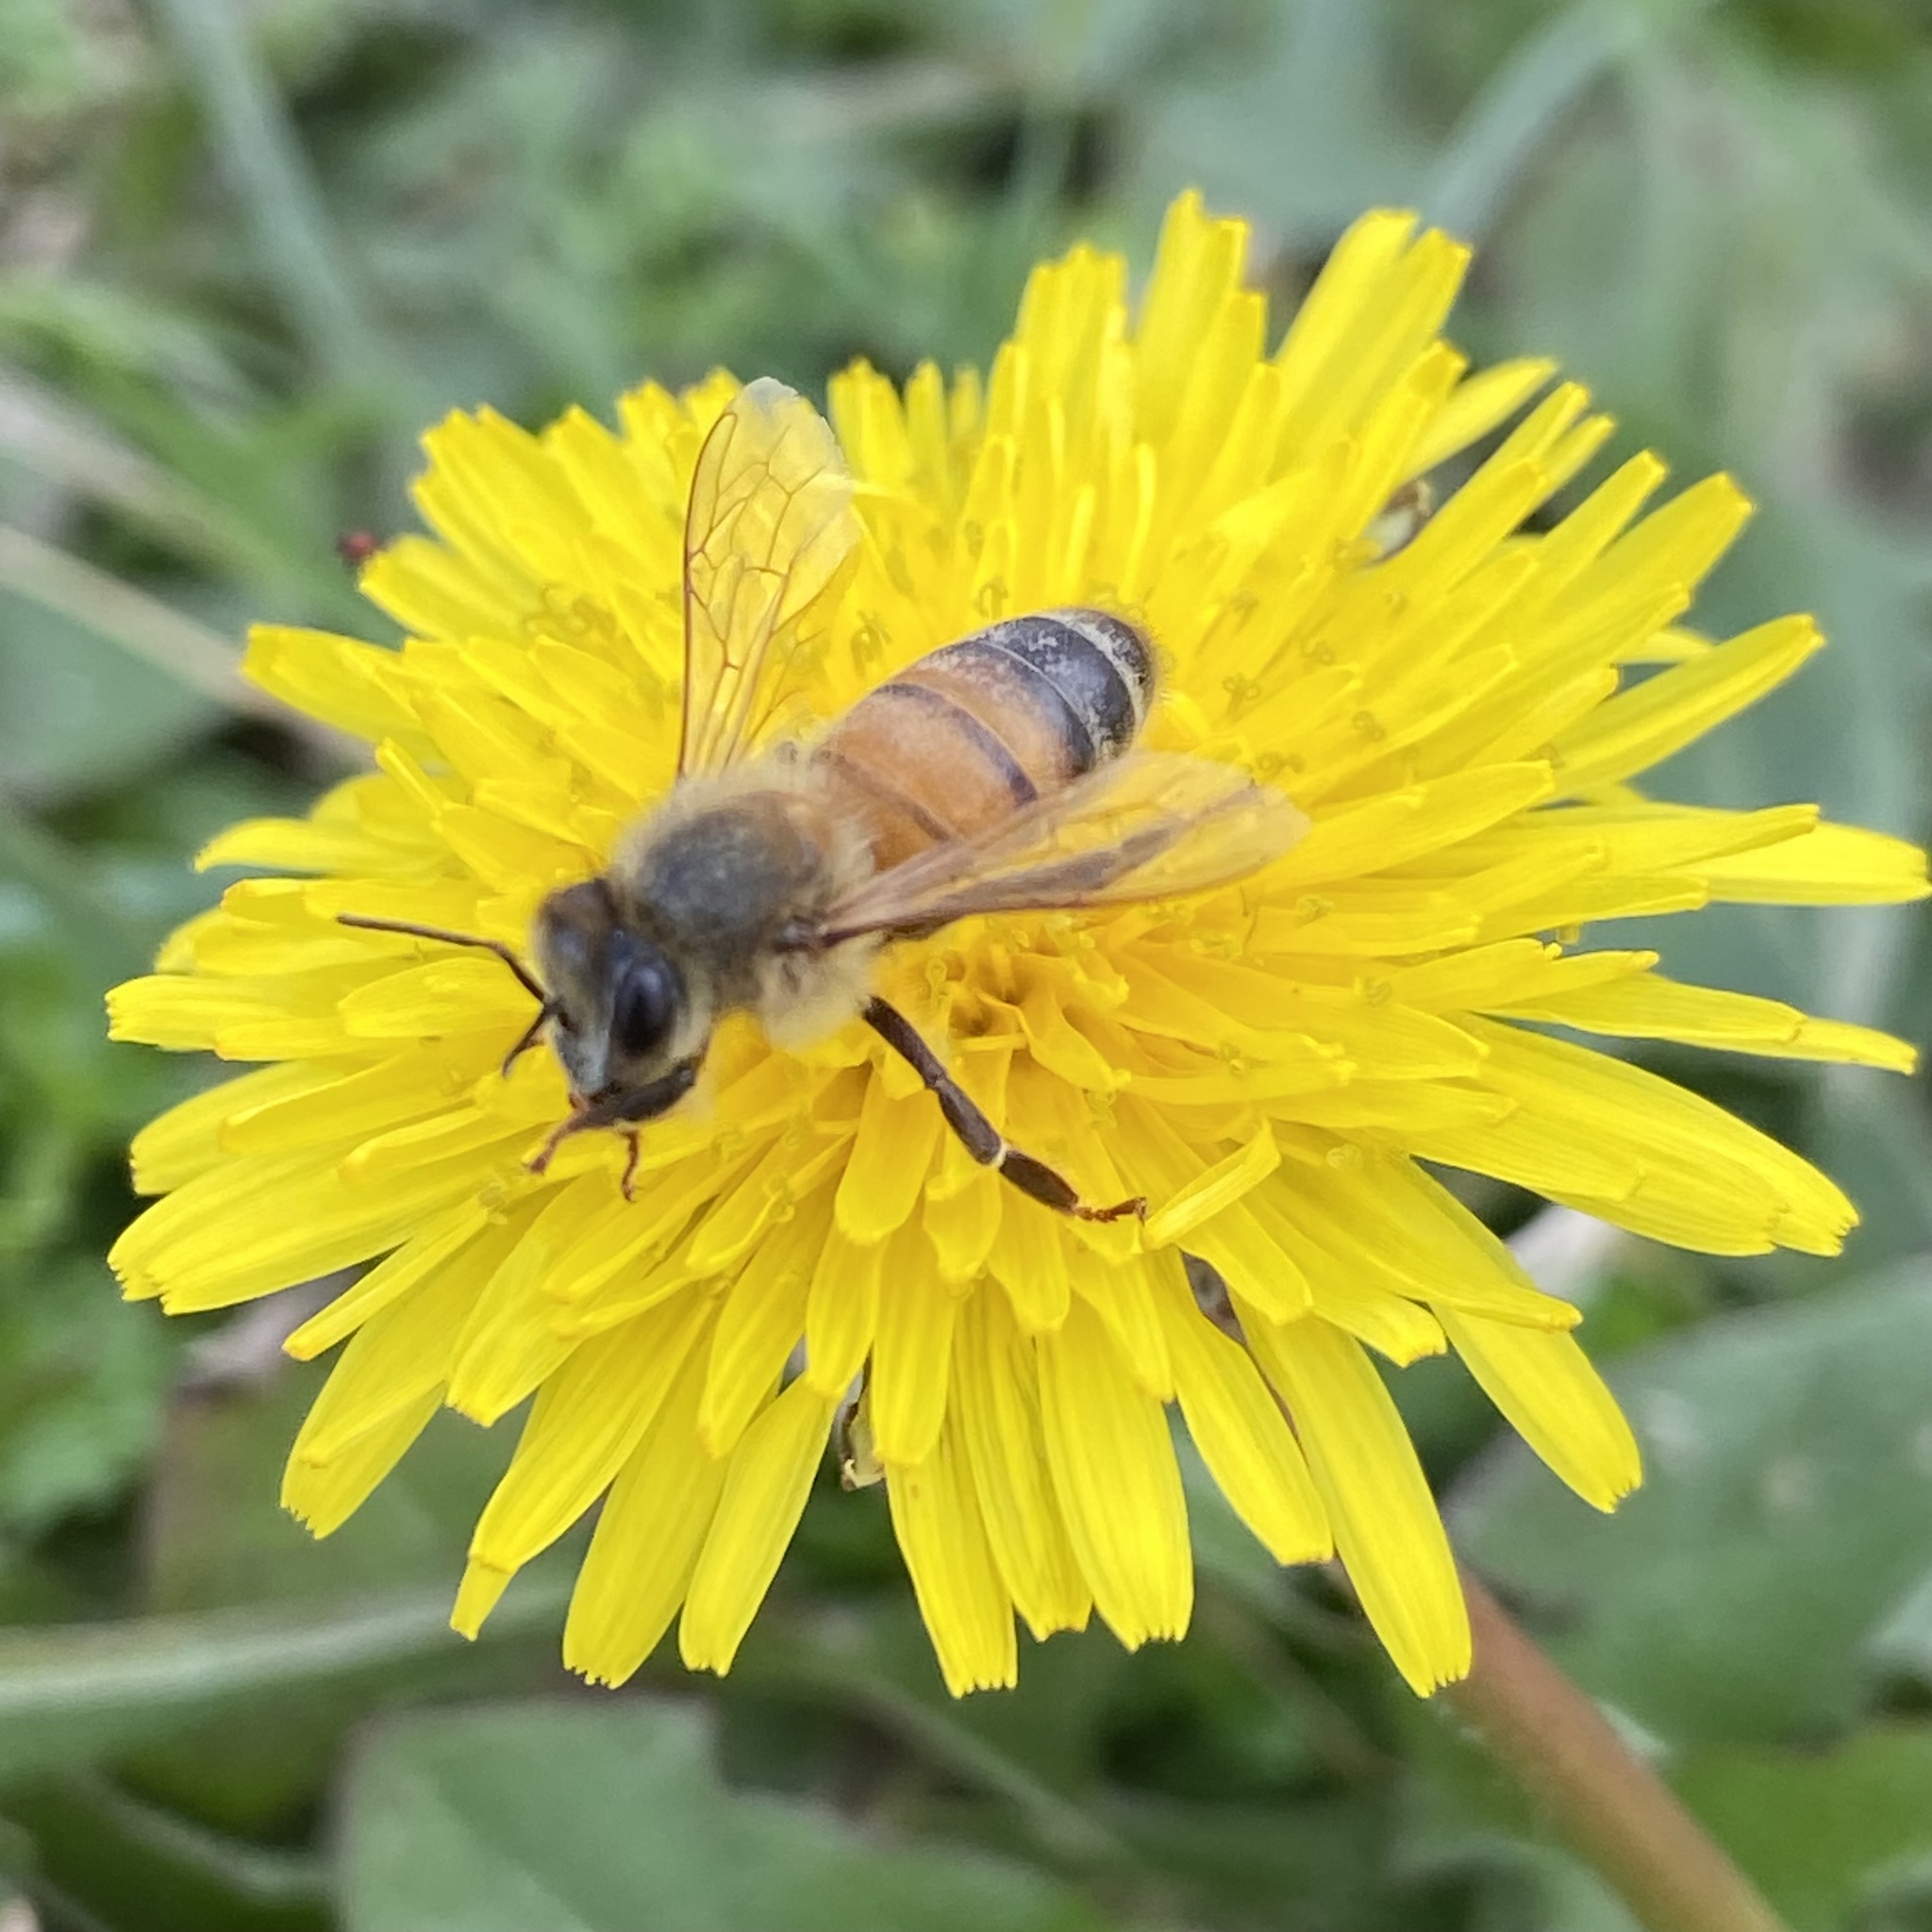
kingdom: Animalia
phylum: Arthropoda
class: Insecta
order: Hymenoptera
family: Apidae
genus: Apis
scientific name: Apis mellifera
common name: Honey bee
